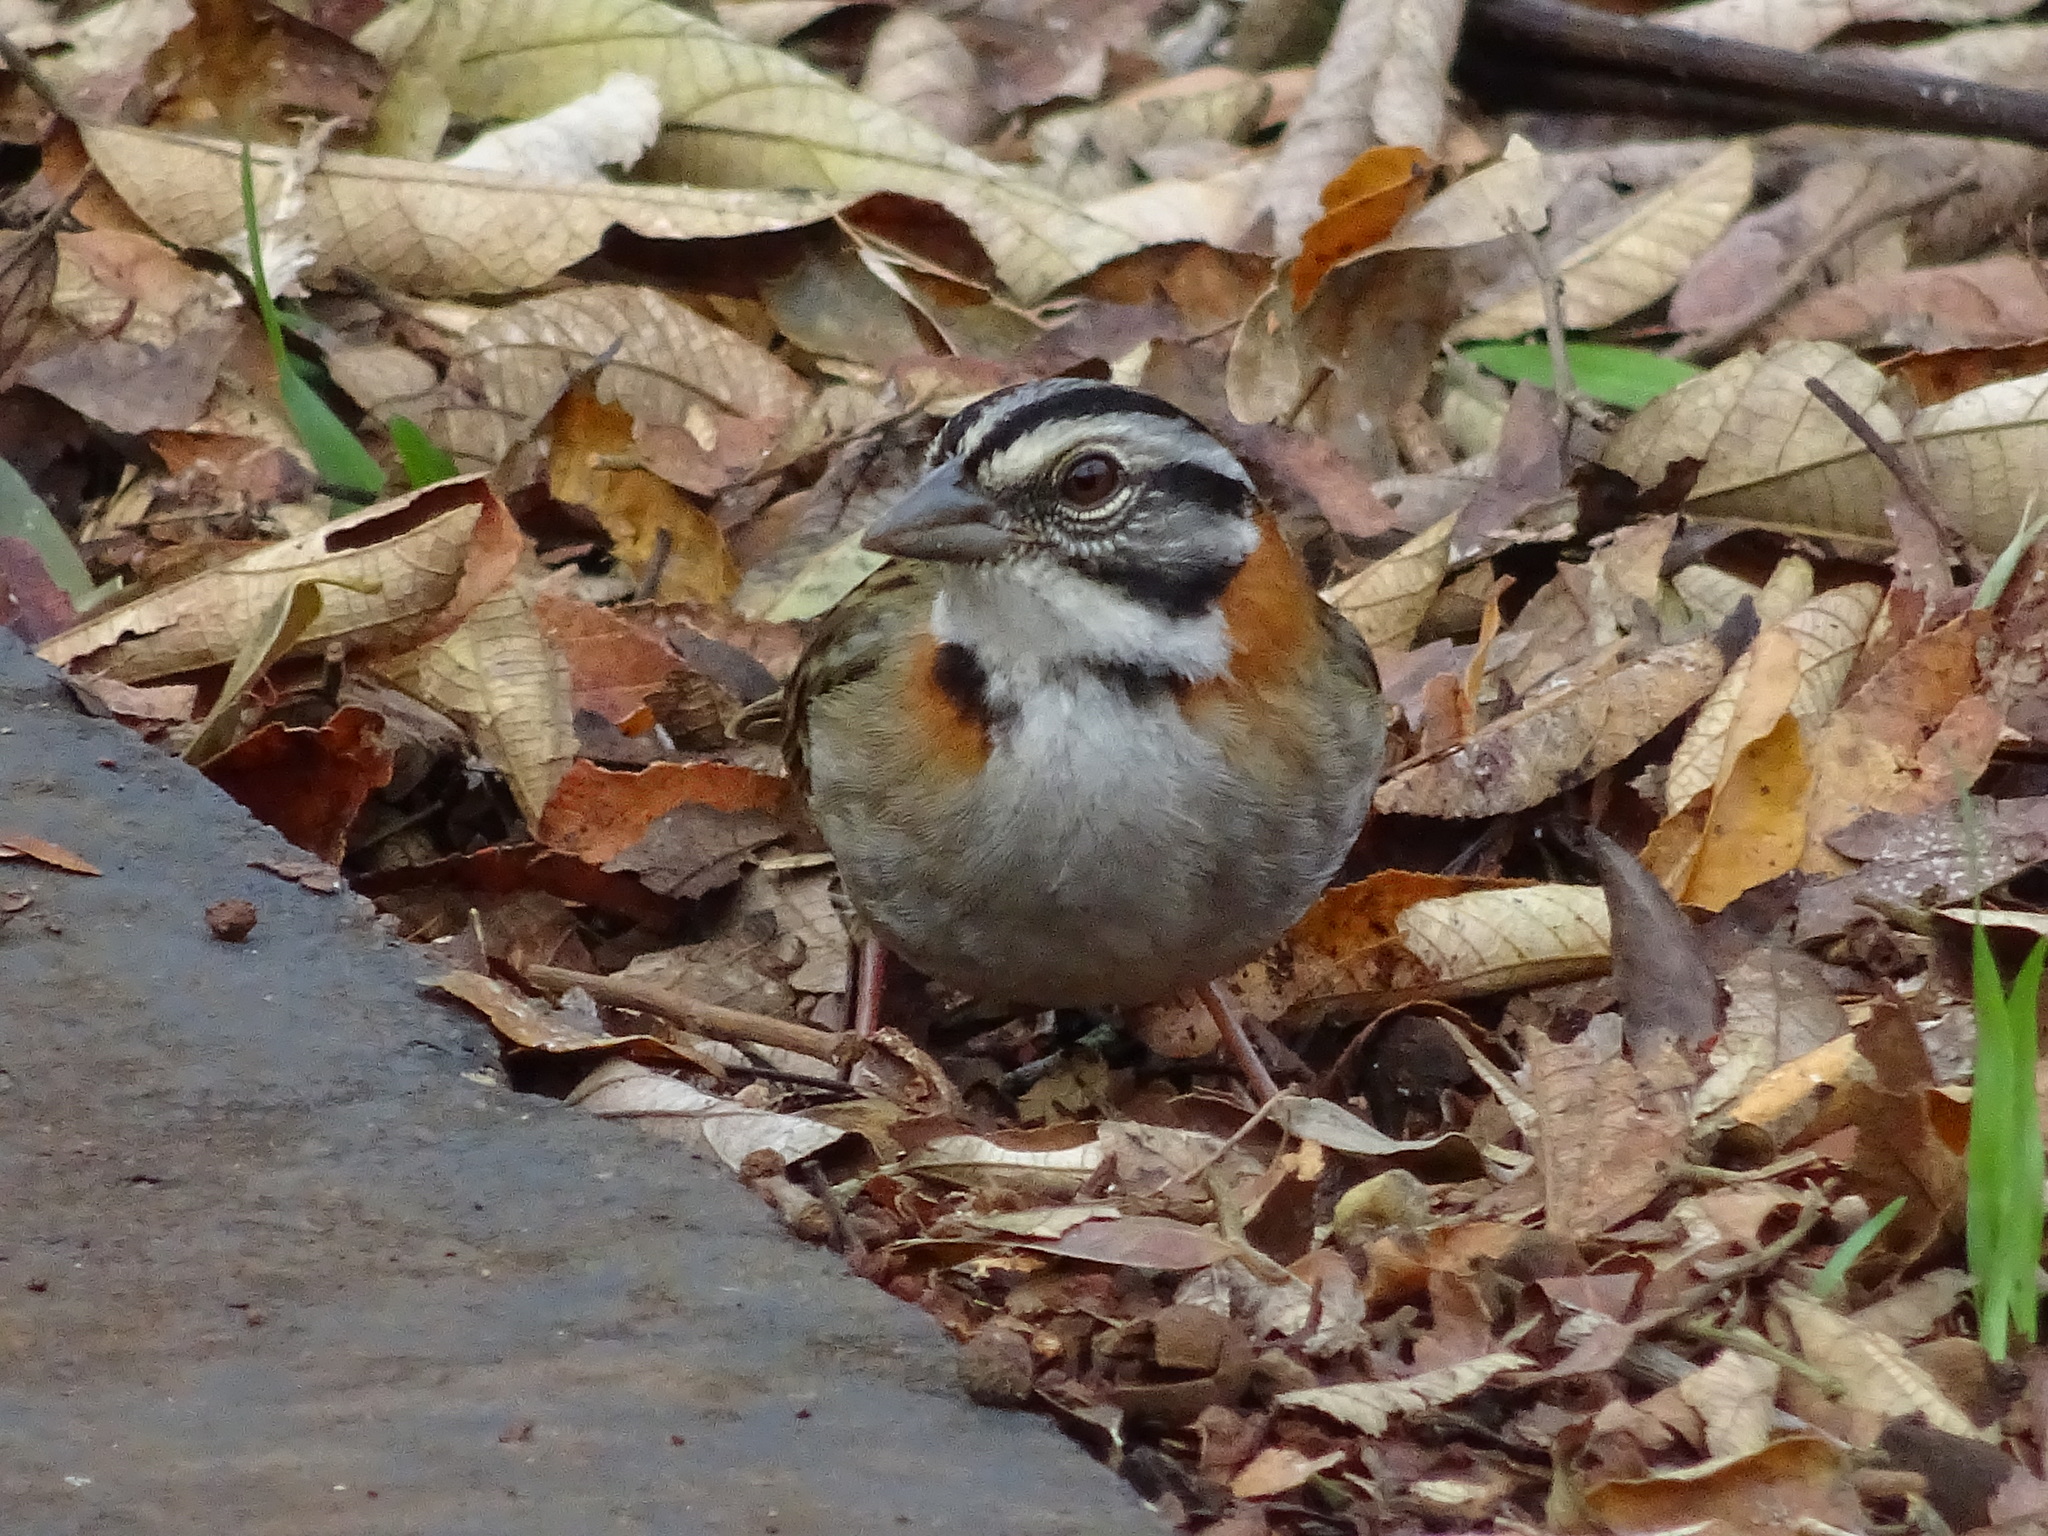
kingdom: Animalia
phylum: Chordata
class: Aves
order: Passeriformes
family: Passerellidae
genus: Zonotrichia
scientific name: Zonotrichia capensis
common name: Rufous-collared sparrow
